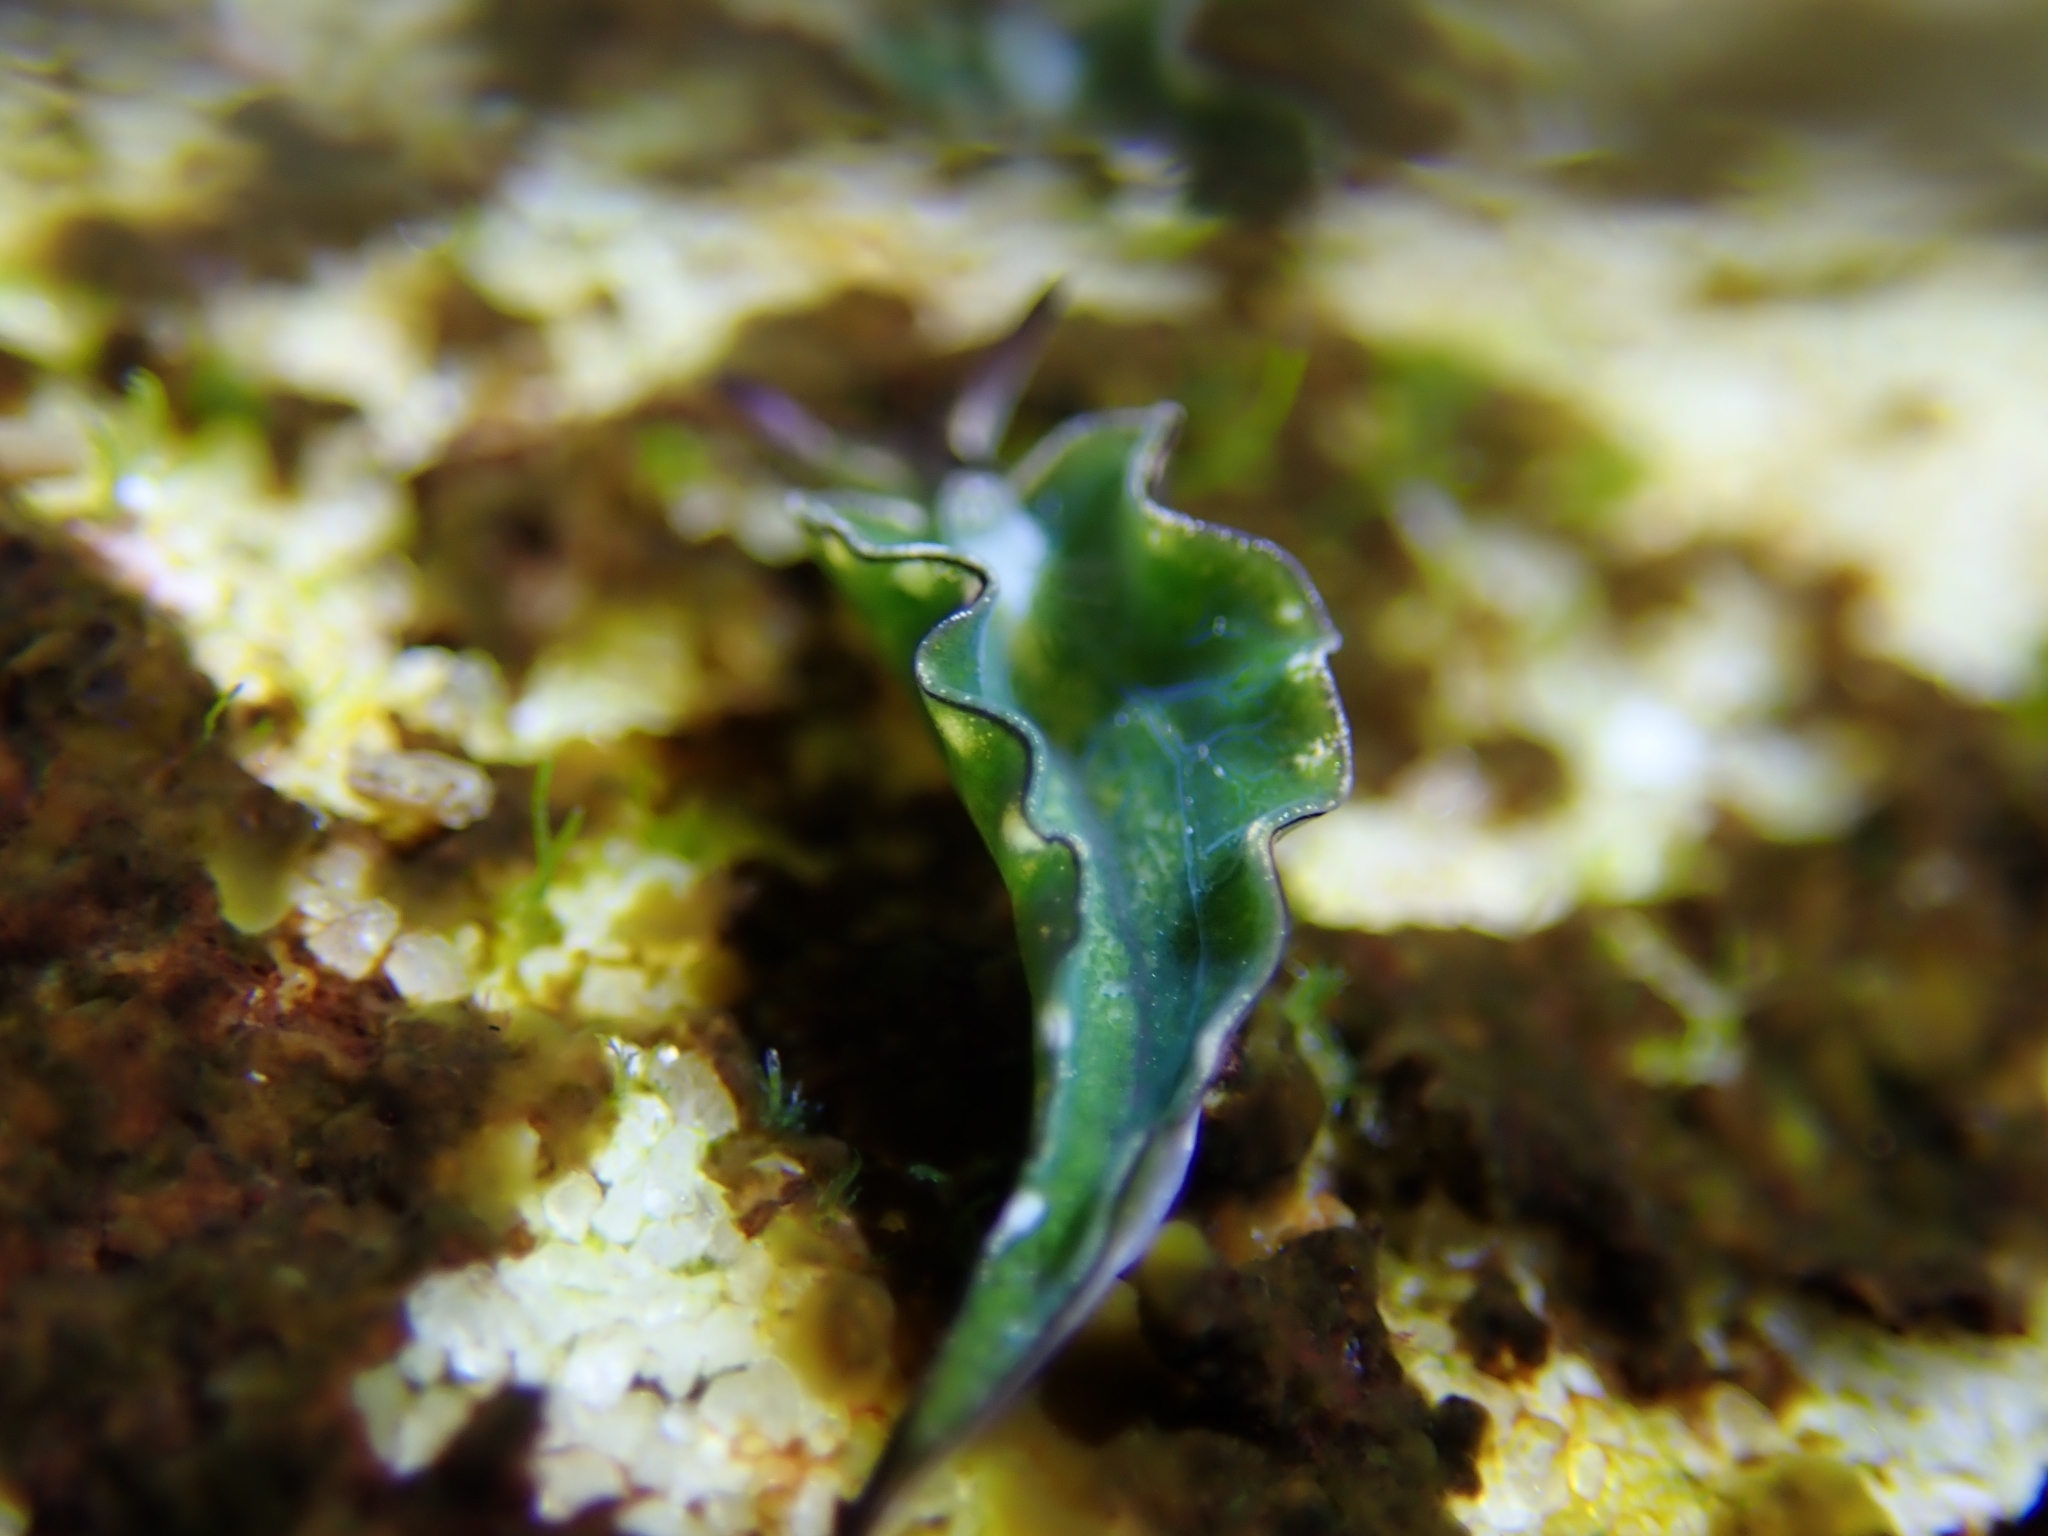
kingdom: Animalia
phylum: Mollusca
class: Gastropoda
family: Plakobranchidae
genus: Elysia
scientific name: Elysia coodgeensis
